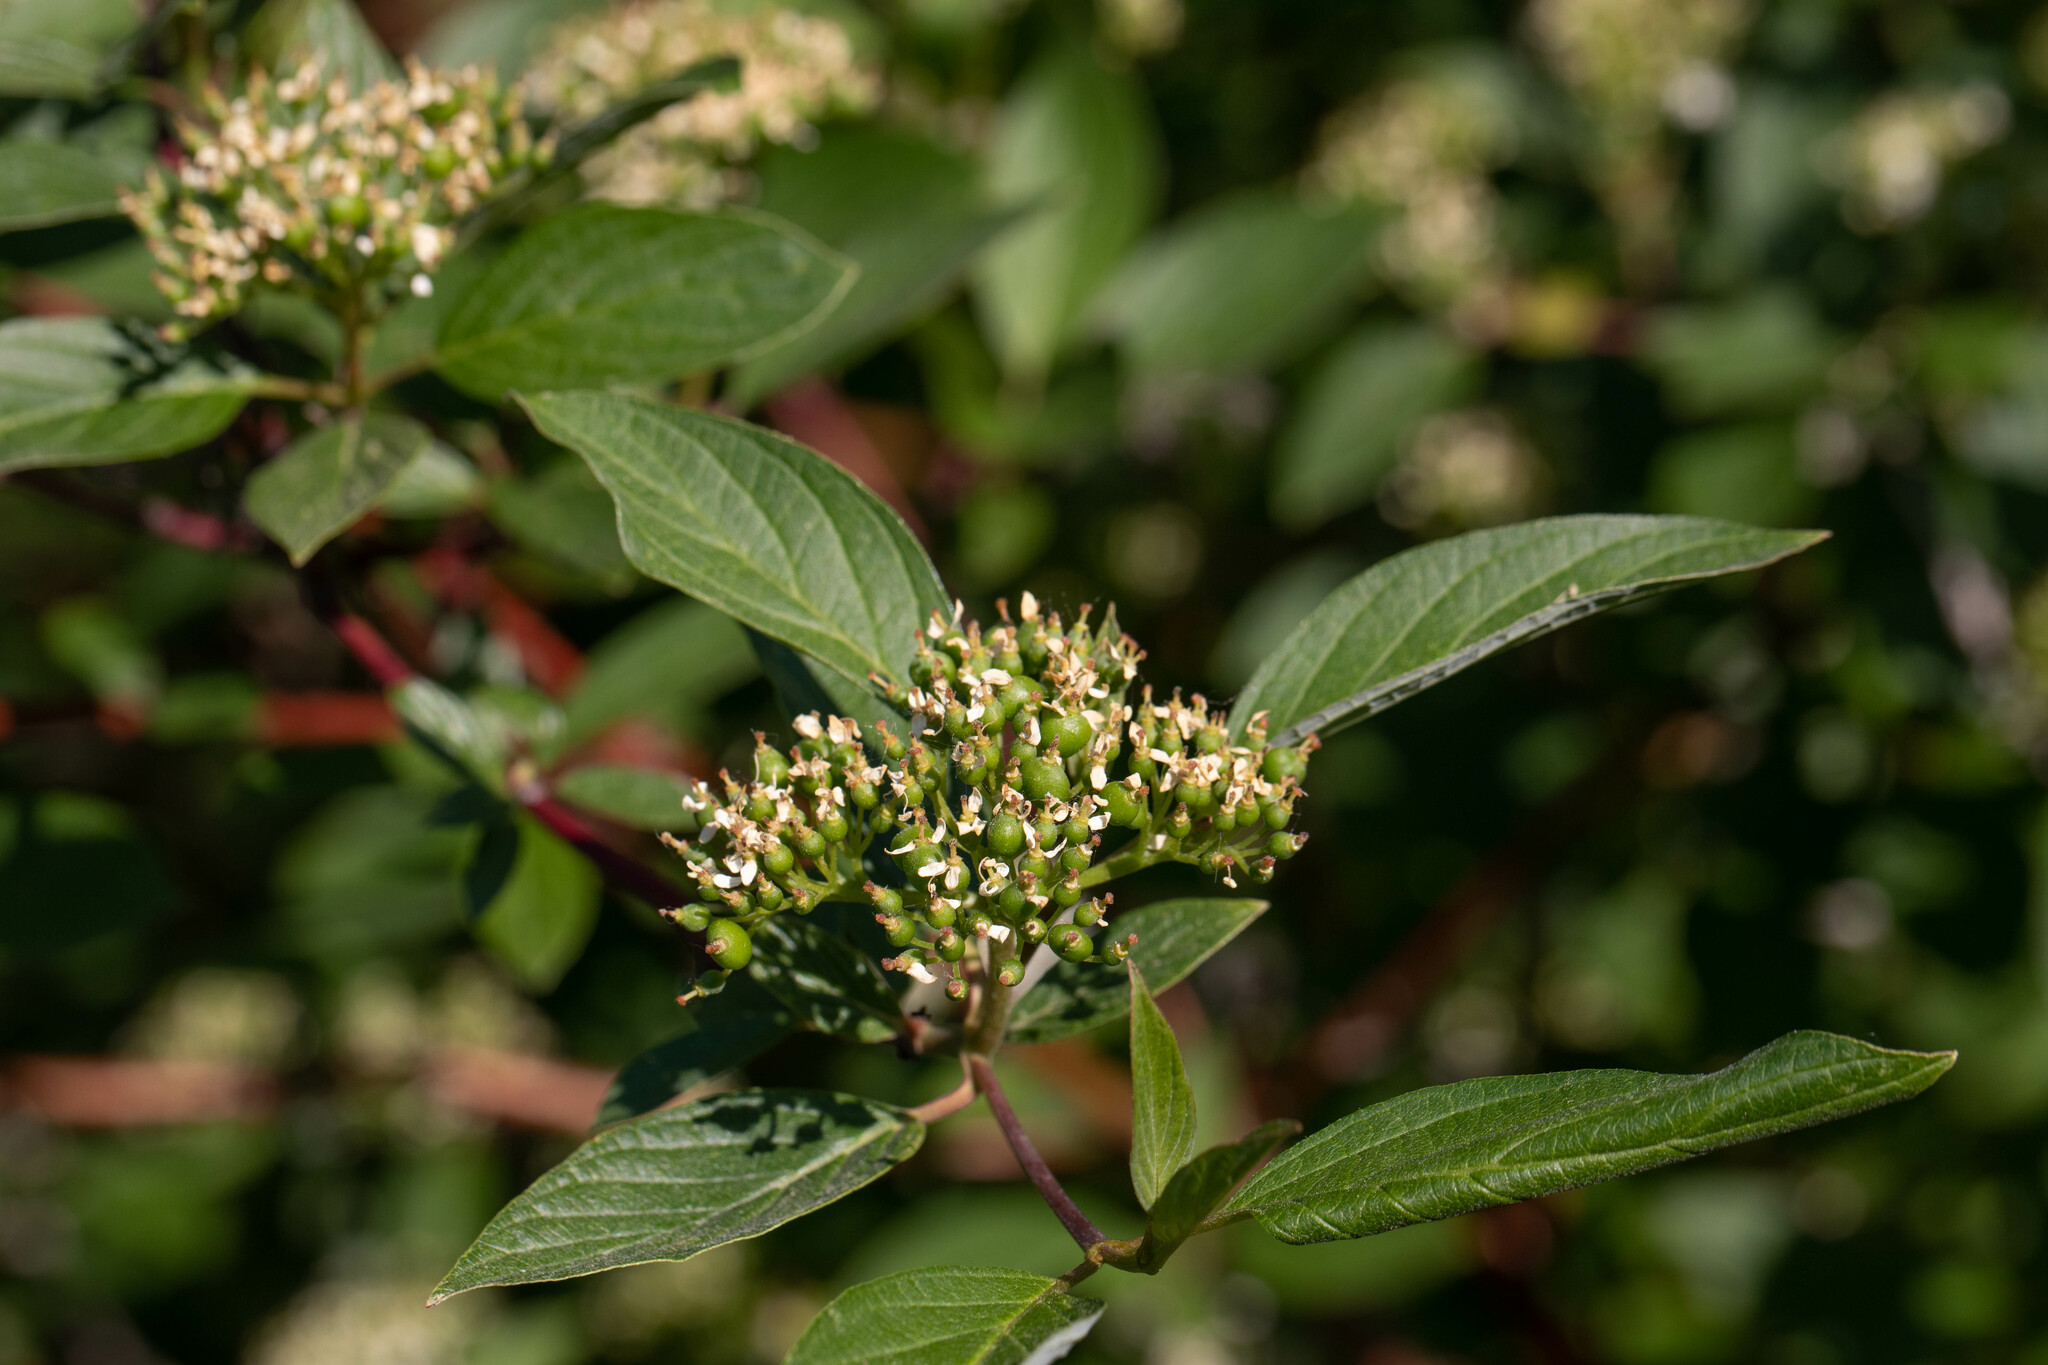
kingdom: Plantae
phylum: Tracheophyta
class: Magnoliopsida
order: Cornales
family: Cornaceae
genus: Cornus
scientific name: Cornus sericea
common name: Red-osier dogwood
